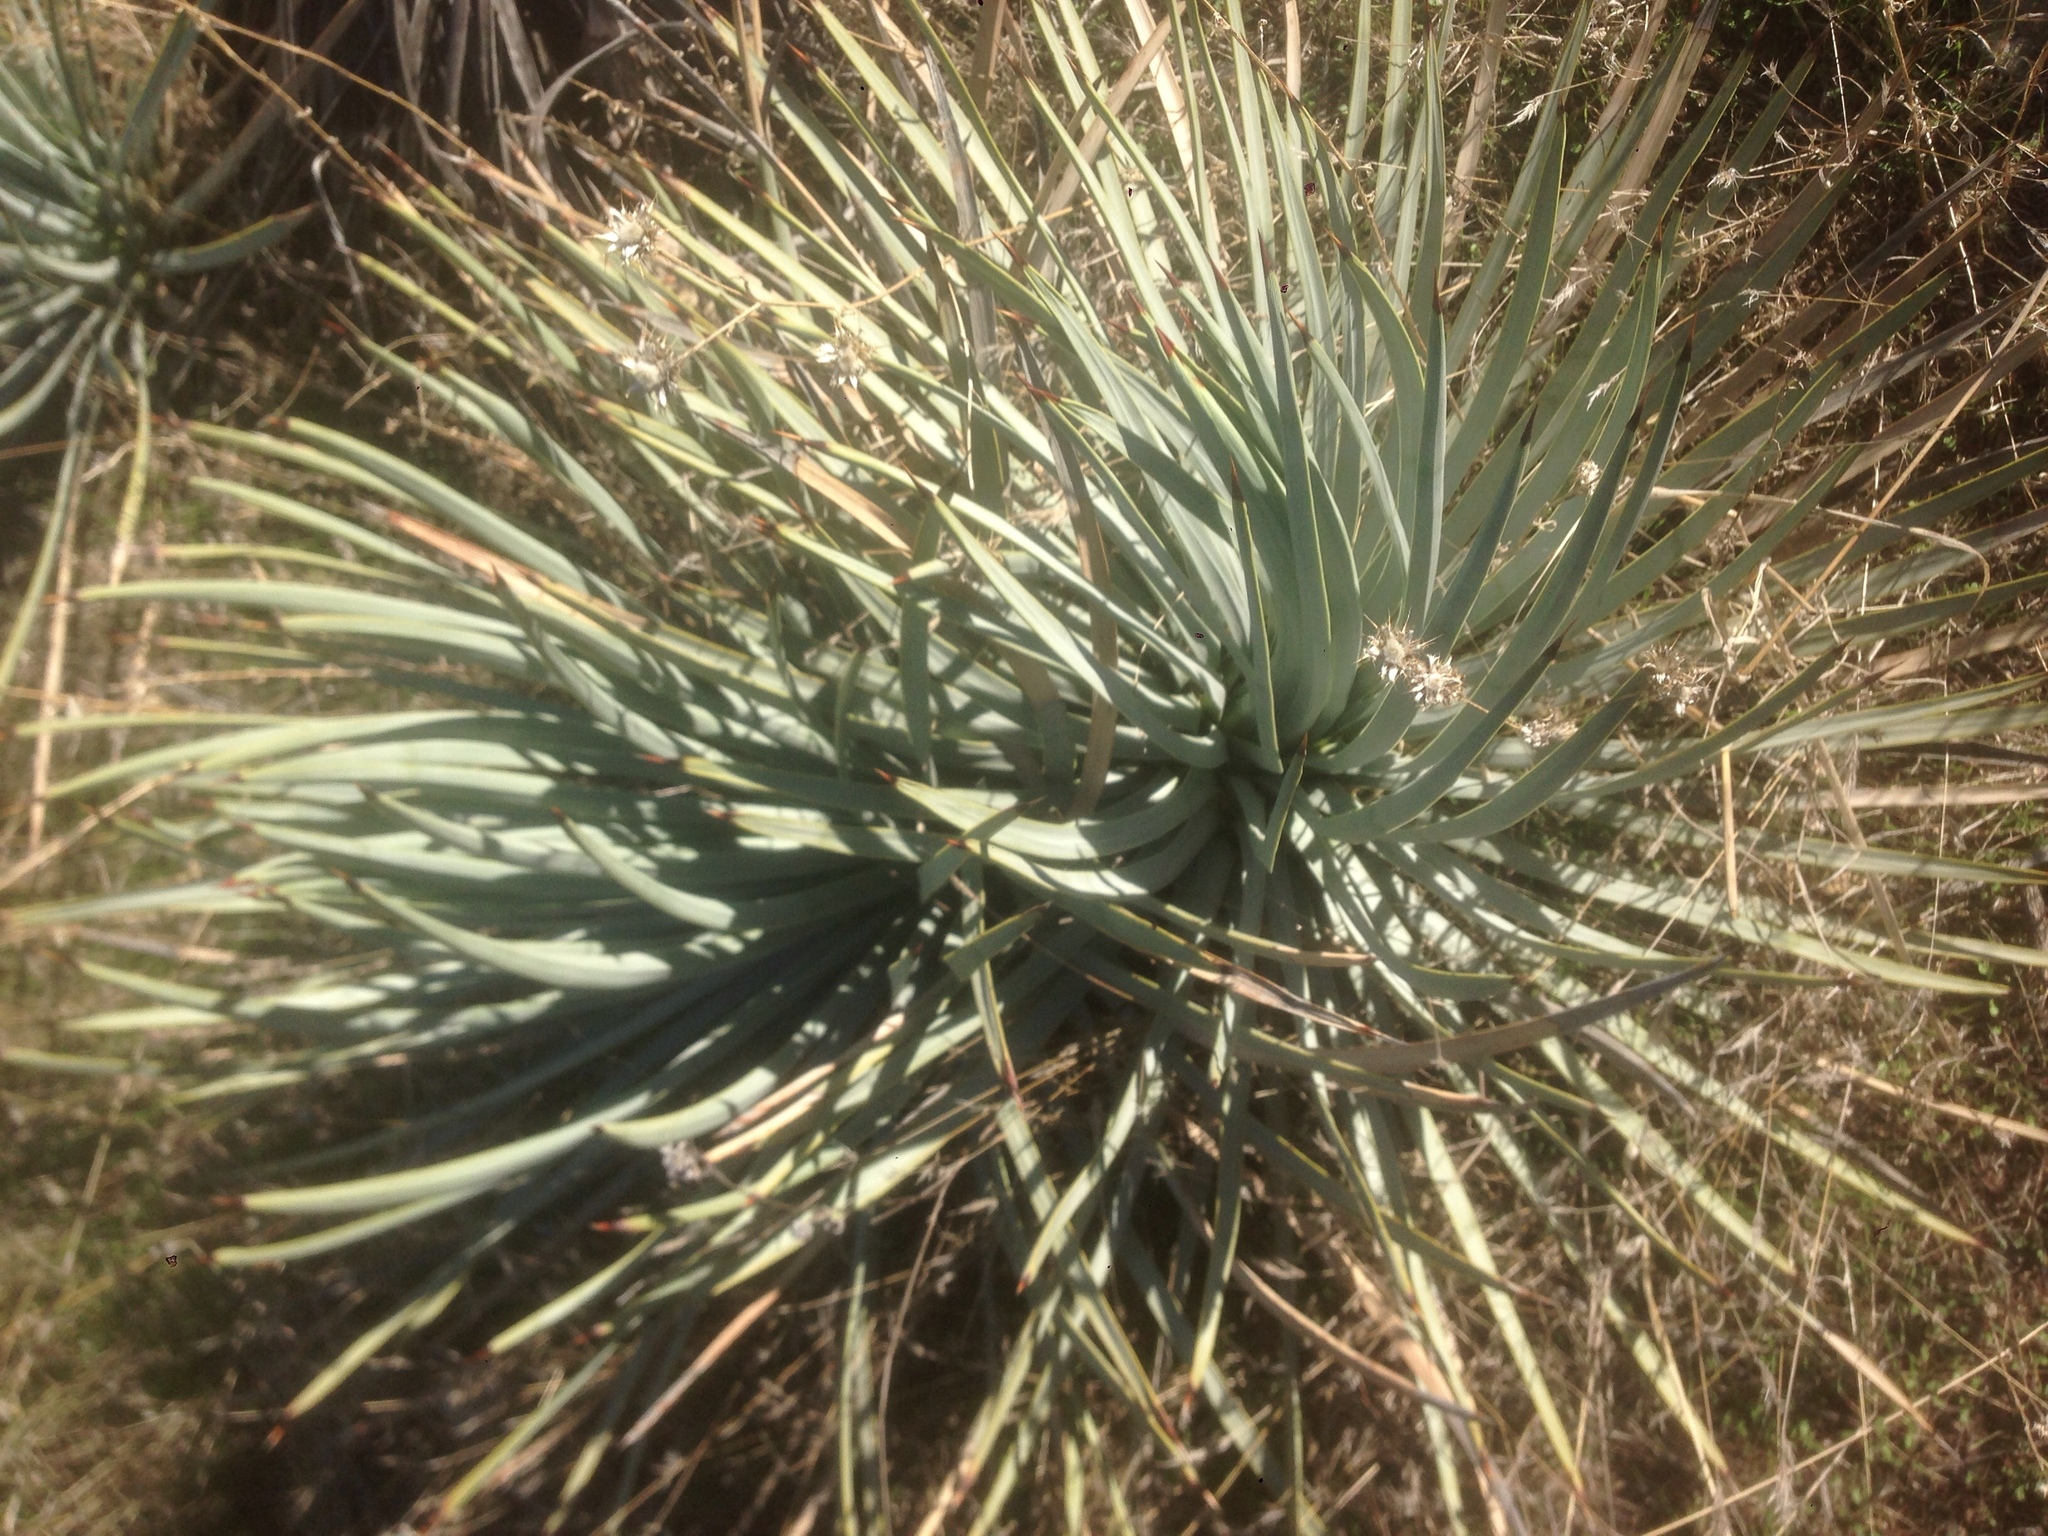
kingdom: Plantae
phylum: Tracheophyta
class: Liliopsida
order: Asparagales
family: Asparagaceae
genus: Hesperoyucca
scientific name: Hesperoyucca whipplei
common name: Our lord's-candle
